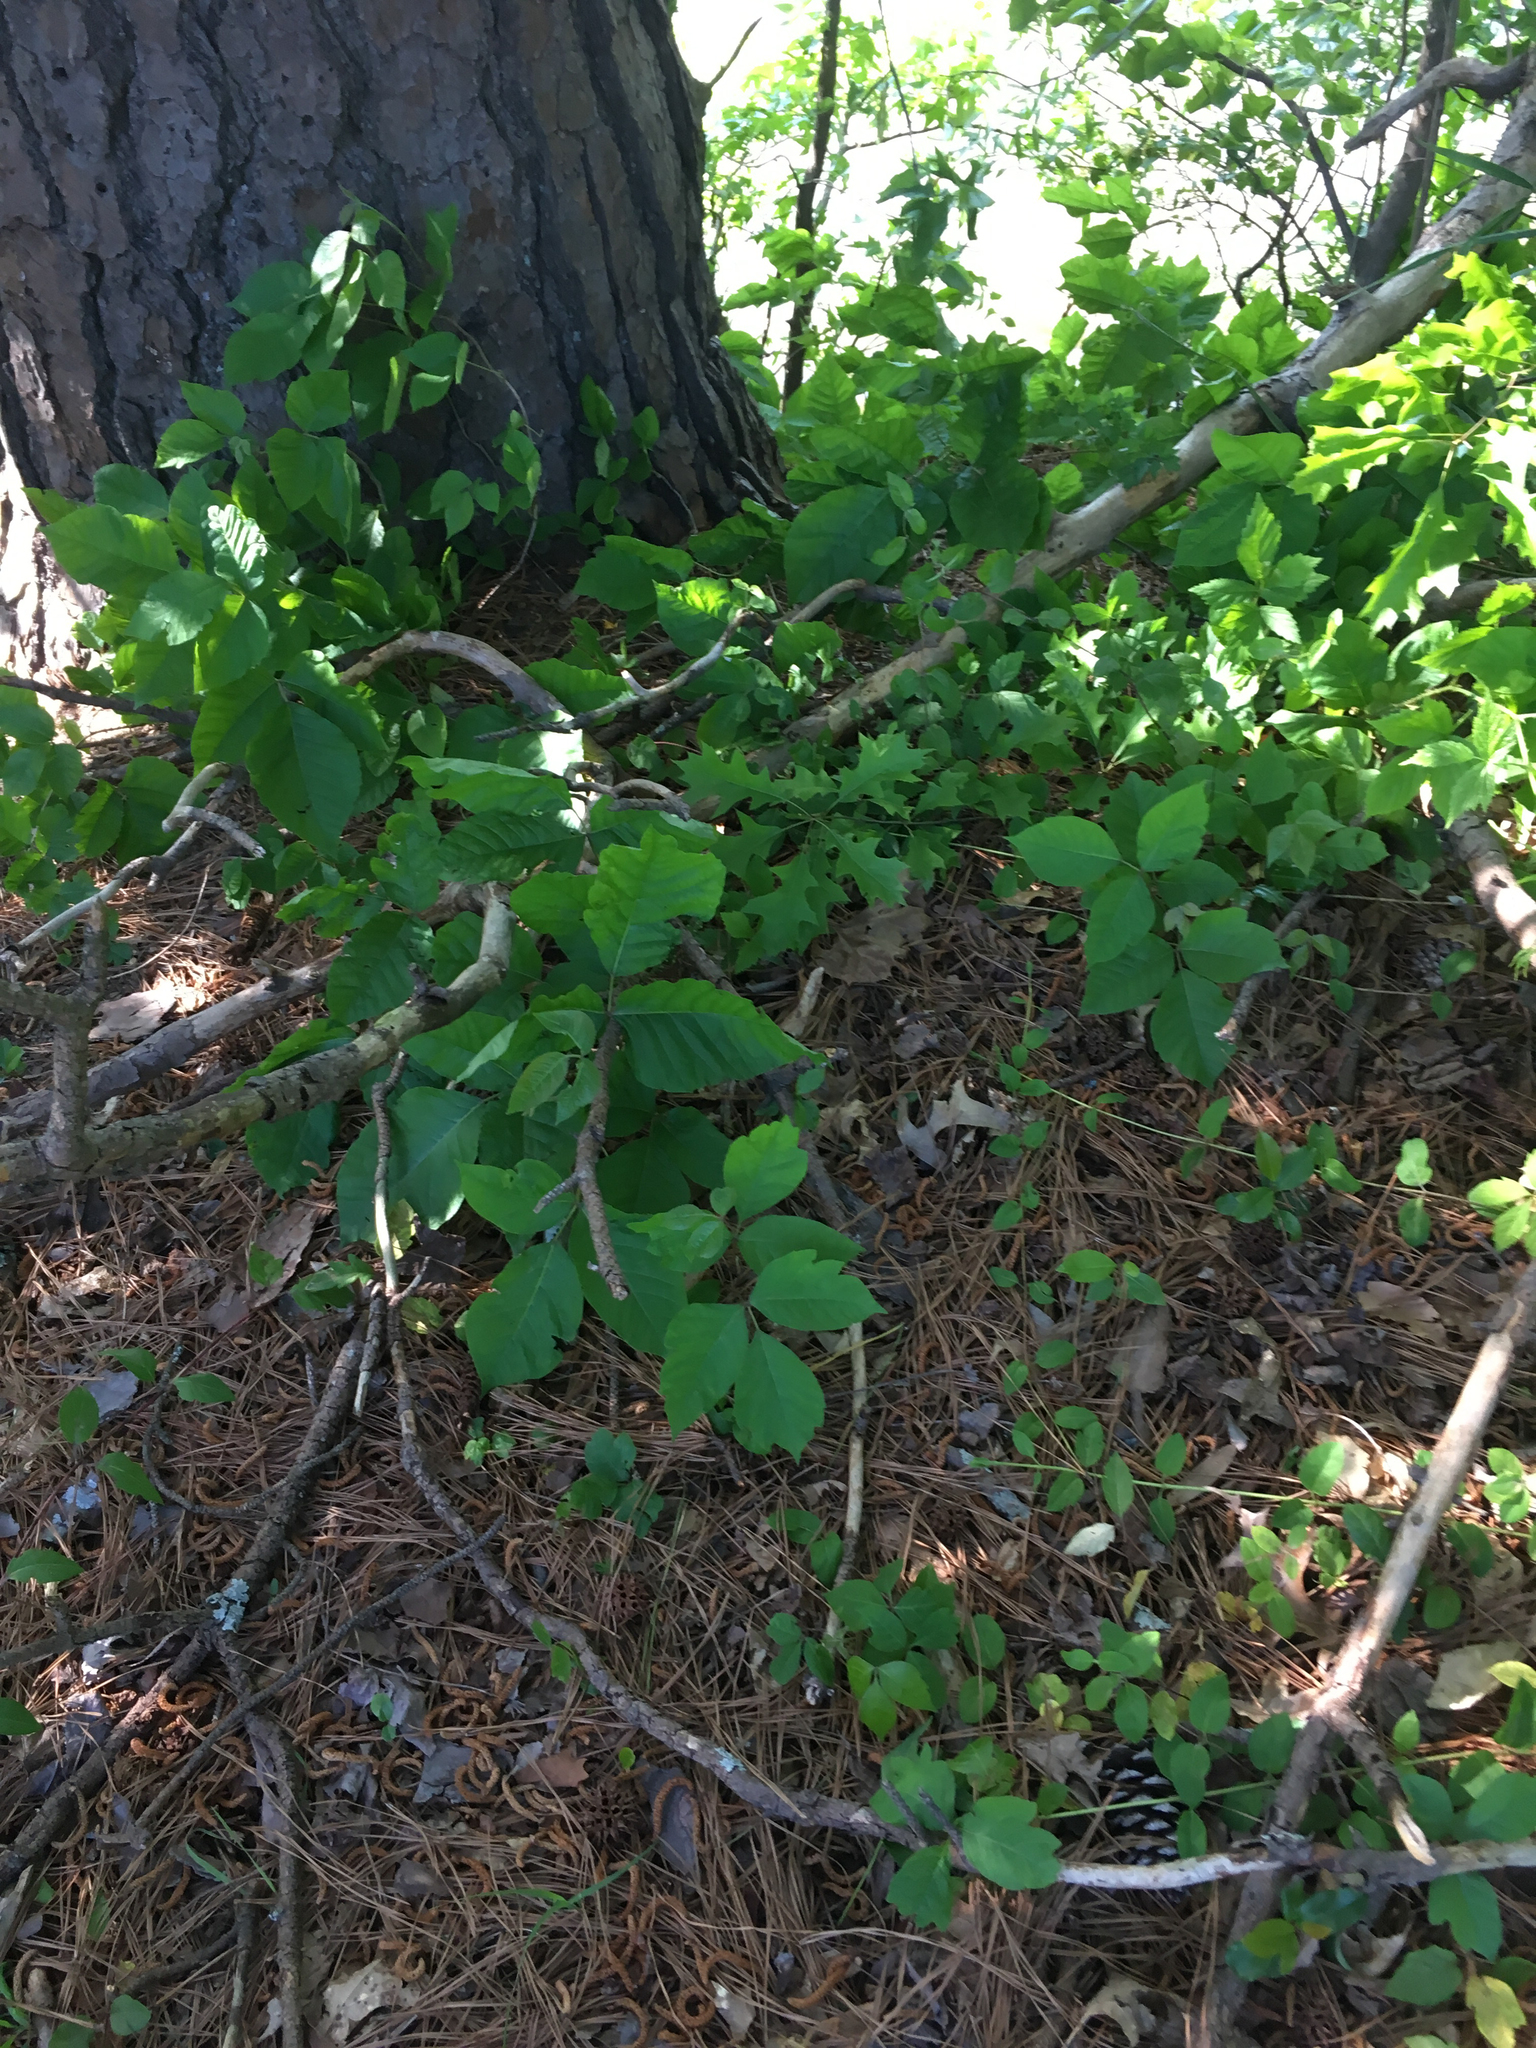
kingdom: Plantae
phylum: Tracheophyta
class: Magnoliopsida
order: Sapindales
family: Anacardiaceae
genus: Toxicodendron
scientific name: Toxicodendron radicans
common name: Poison ivy
